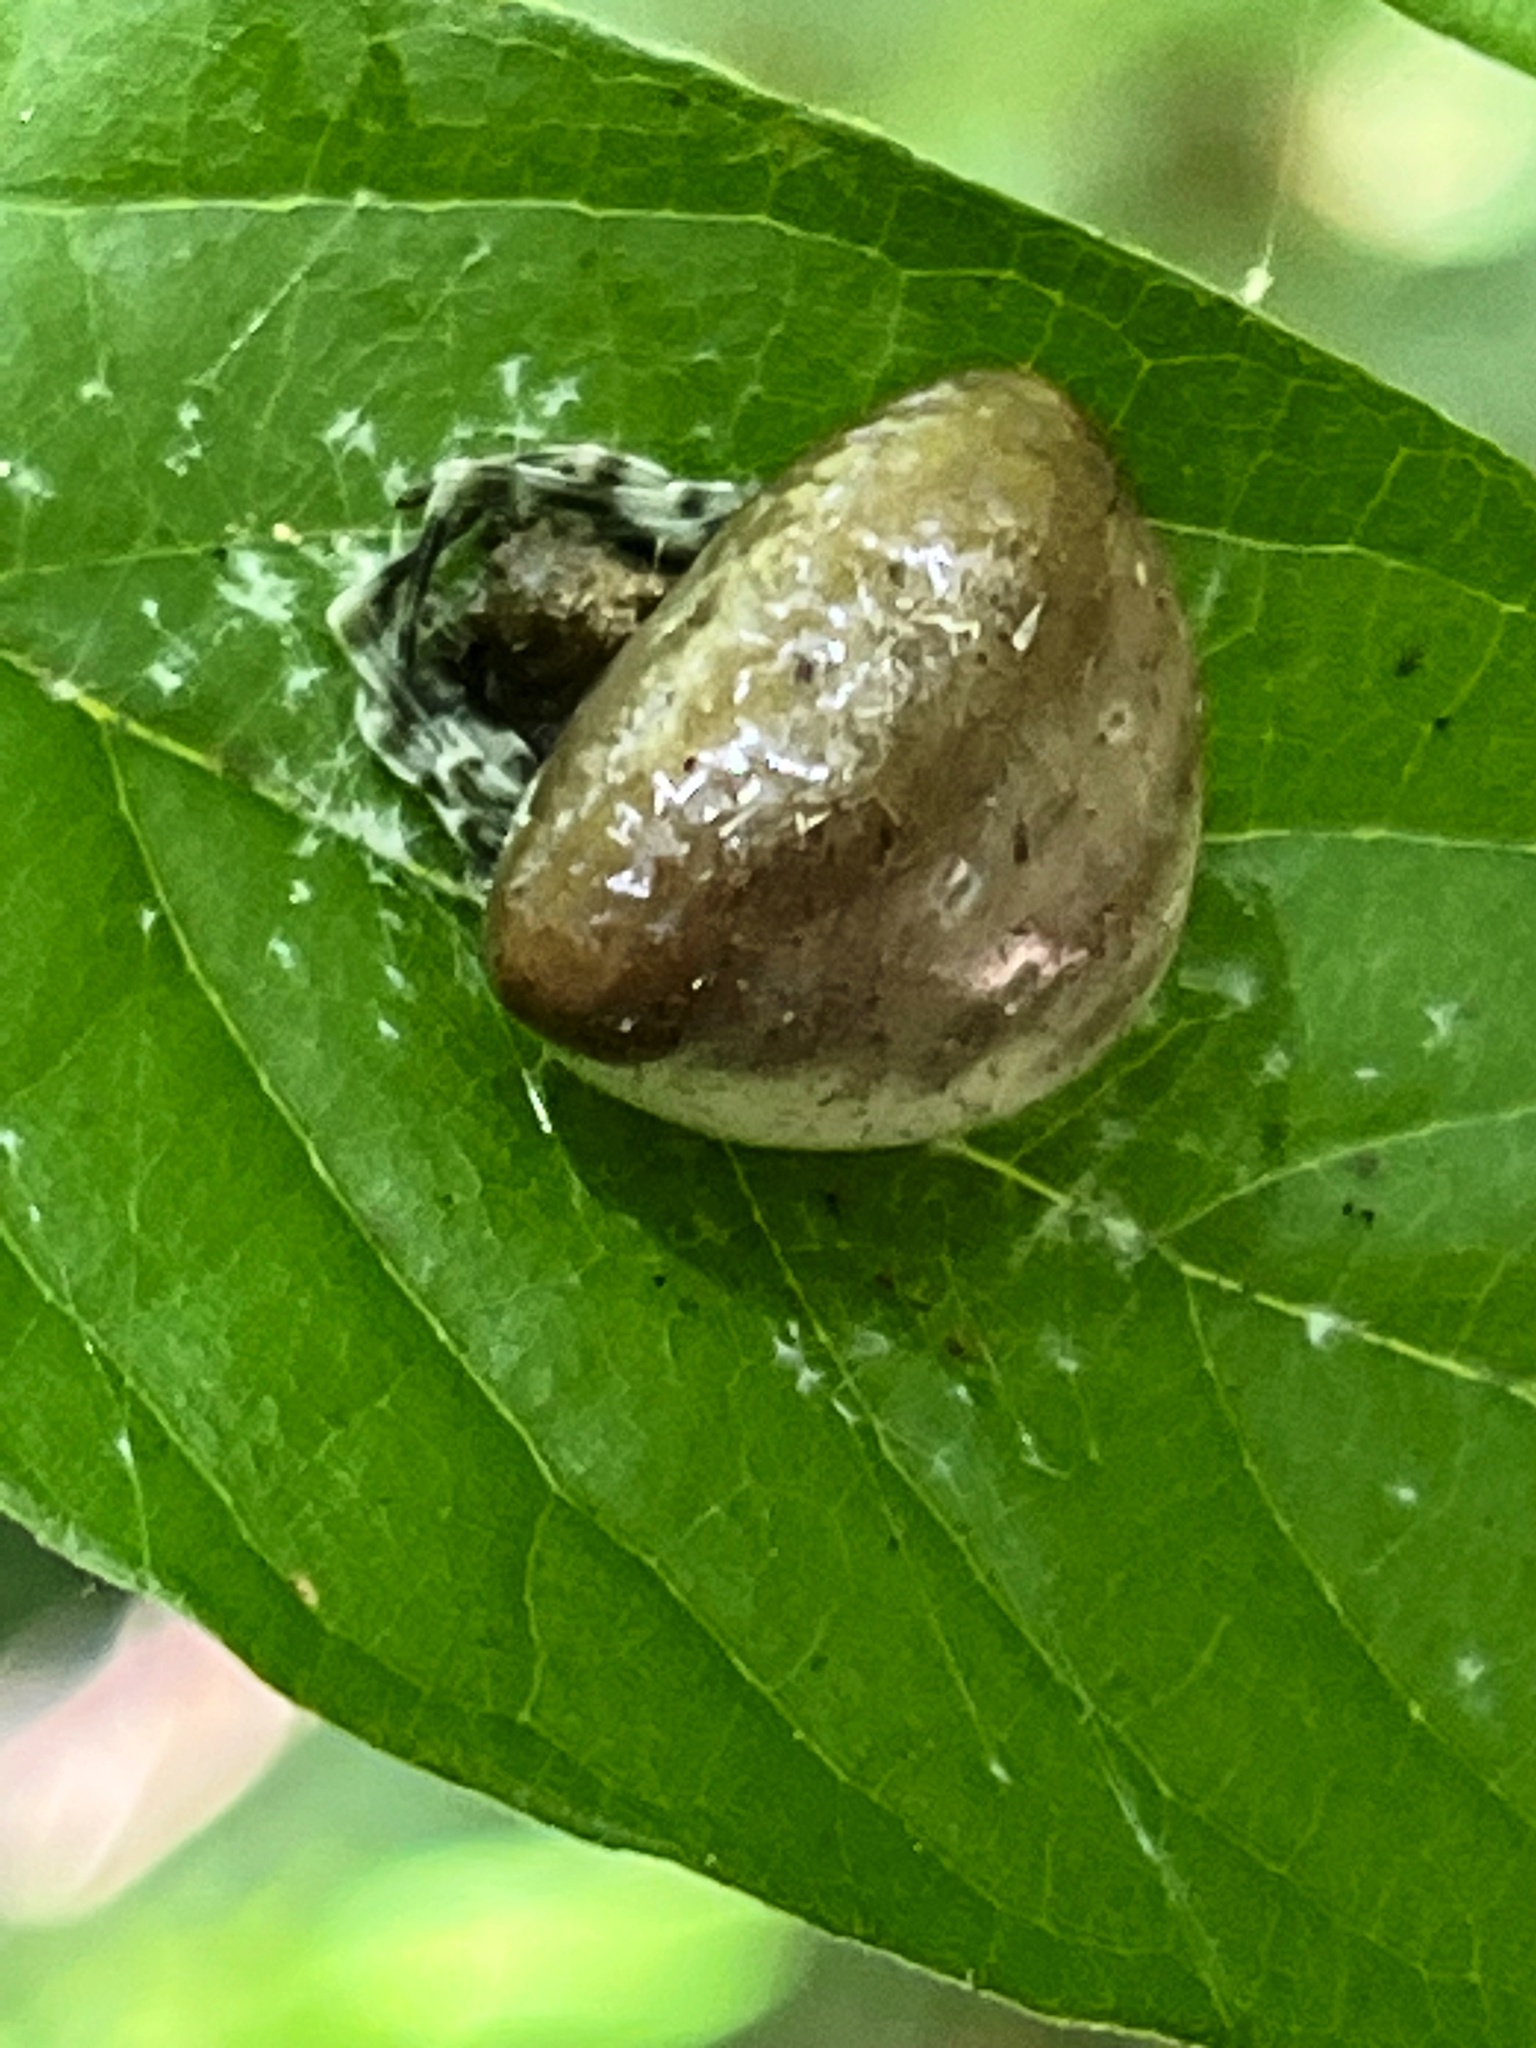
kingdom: Animalia
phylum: Arthropoda
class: Arachnida
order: Araneae
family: Araneidae
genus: Mastophora
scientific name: Mastophora phrynosoma
